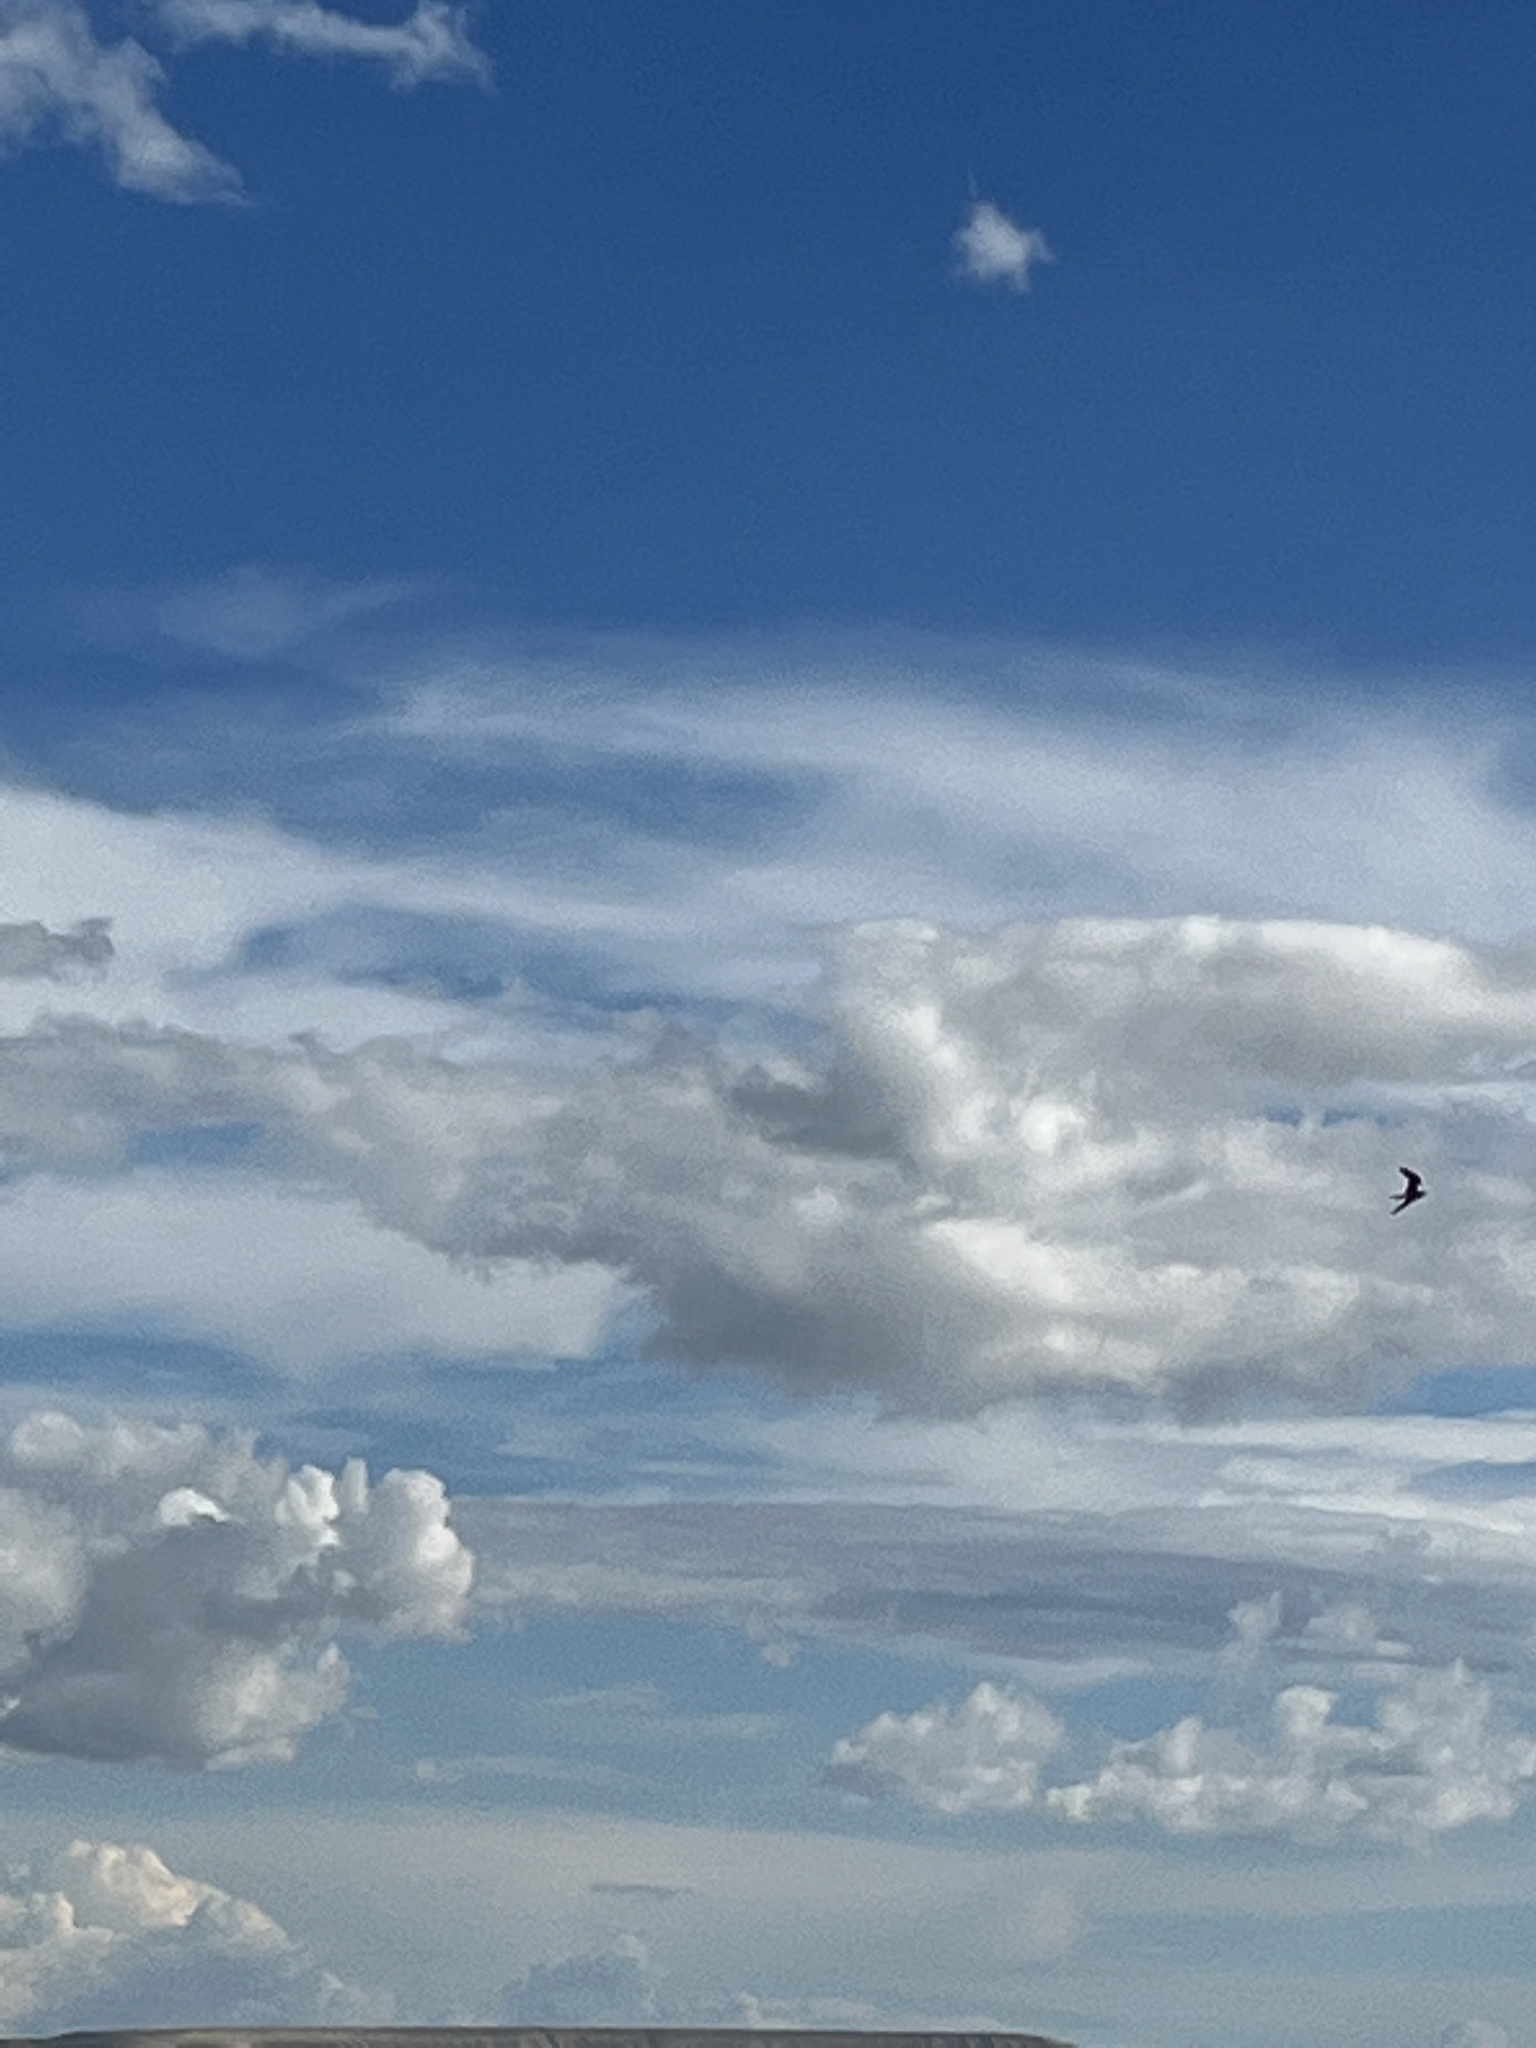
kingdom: Animalia
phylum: Chordata
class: Aves
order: Caprimulgiformes
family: Caprimulgidae
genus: Chordeiles
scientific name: Chordeiles minor
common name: Common nighthawk
